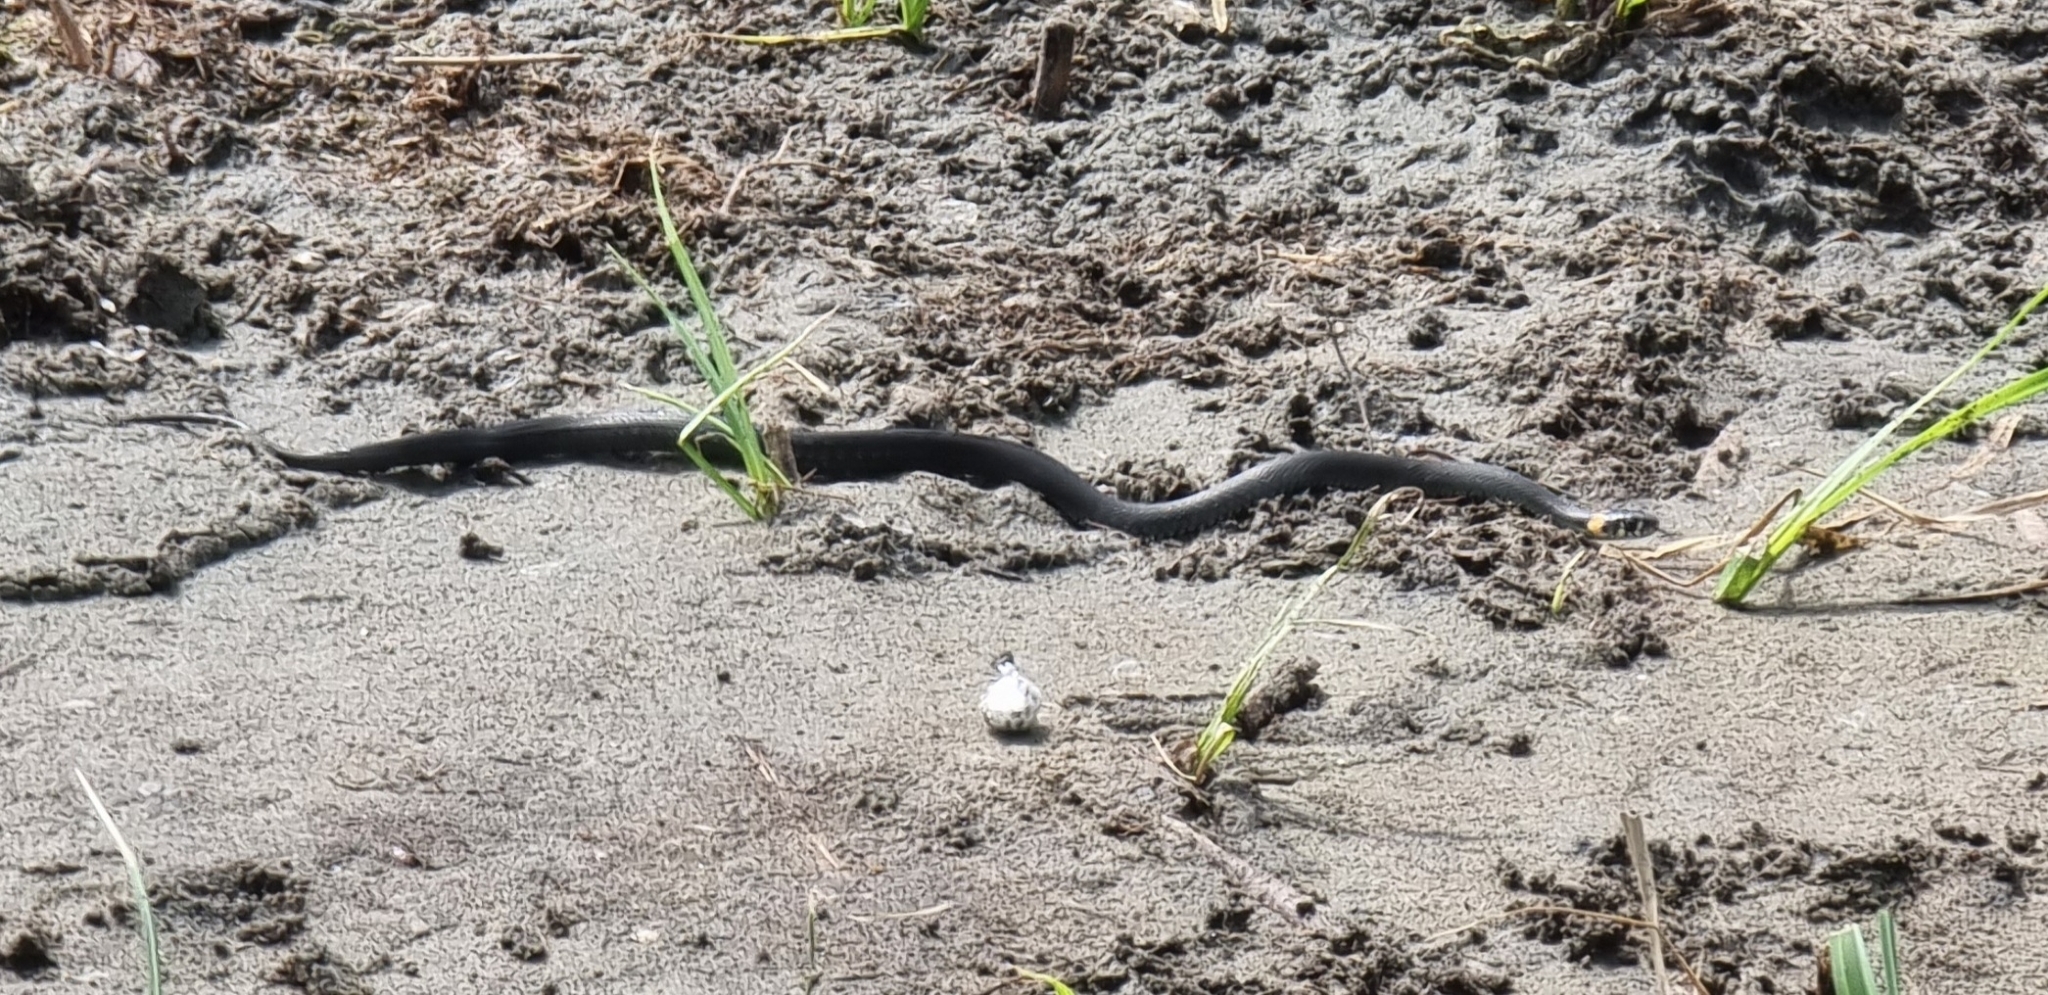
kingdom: Animalia
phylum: Chordata
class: Squamata
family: Colubridae
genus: Natrix
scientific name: Natrix natrix
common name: Grass snake
